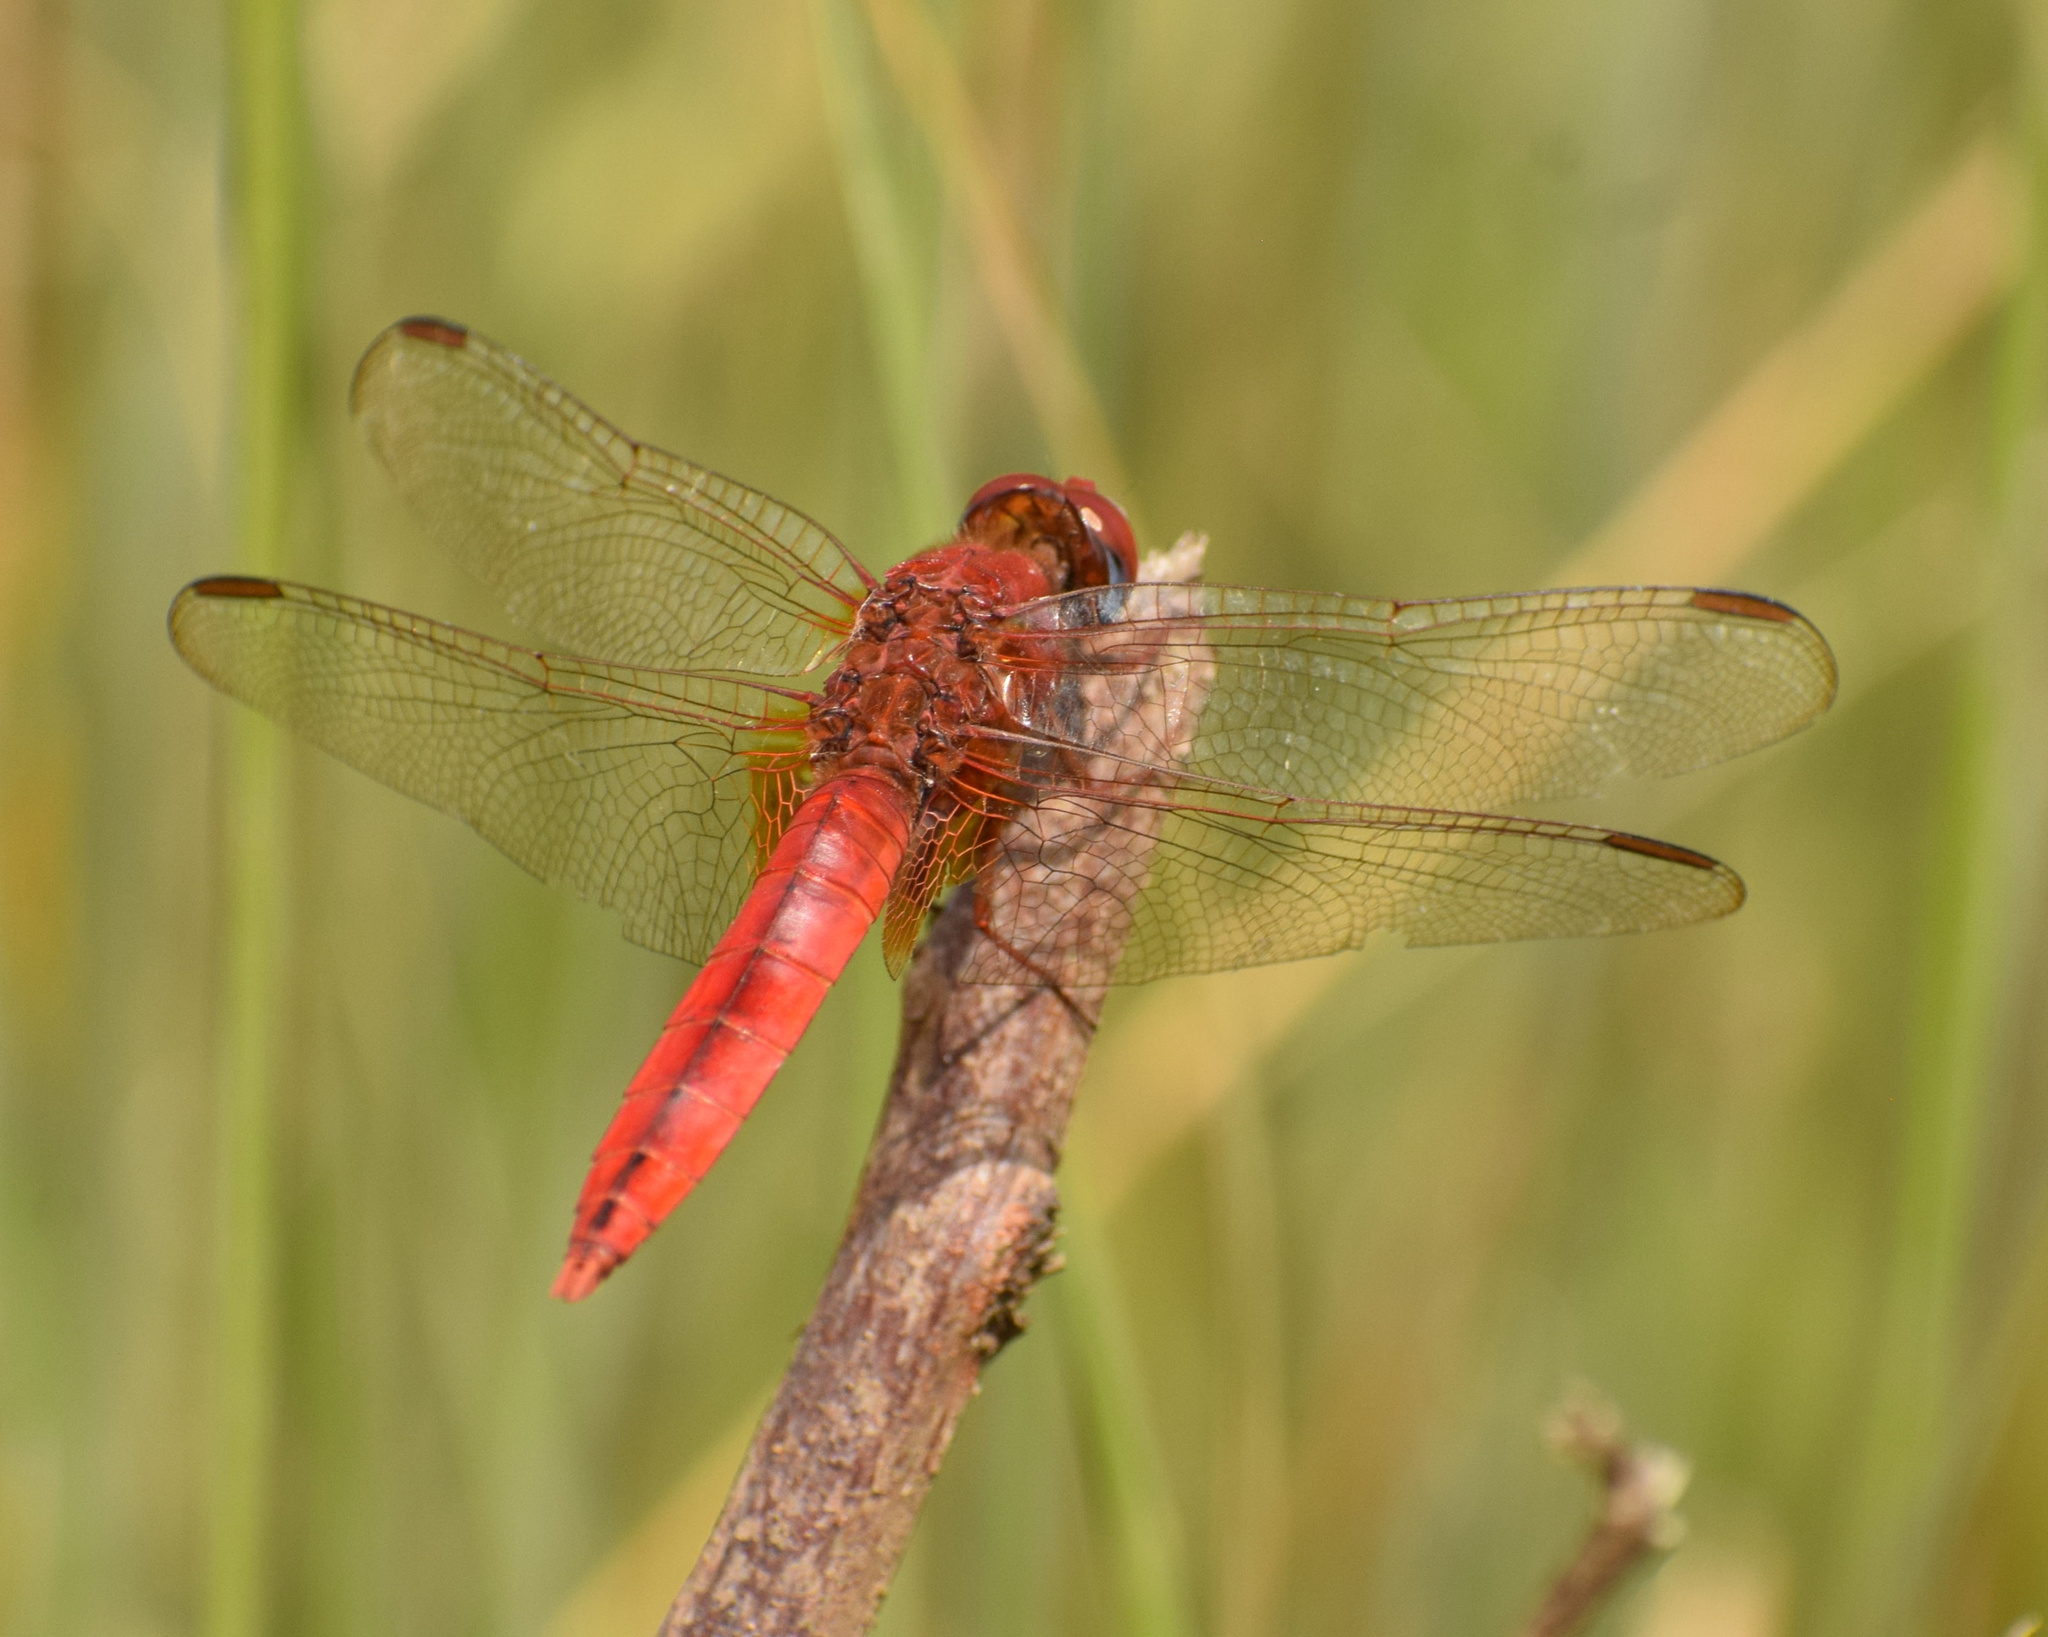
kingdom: Animalia
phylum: Arthropoda
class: Insecta
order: Odonata
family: Libellulidae
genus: Crocothemis
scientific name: Crocothemis erythraea
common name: Scarlet dragonfly
